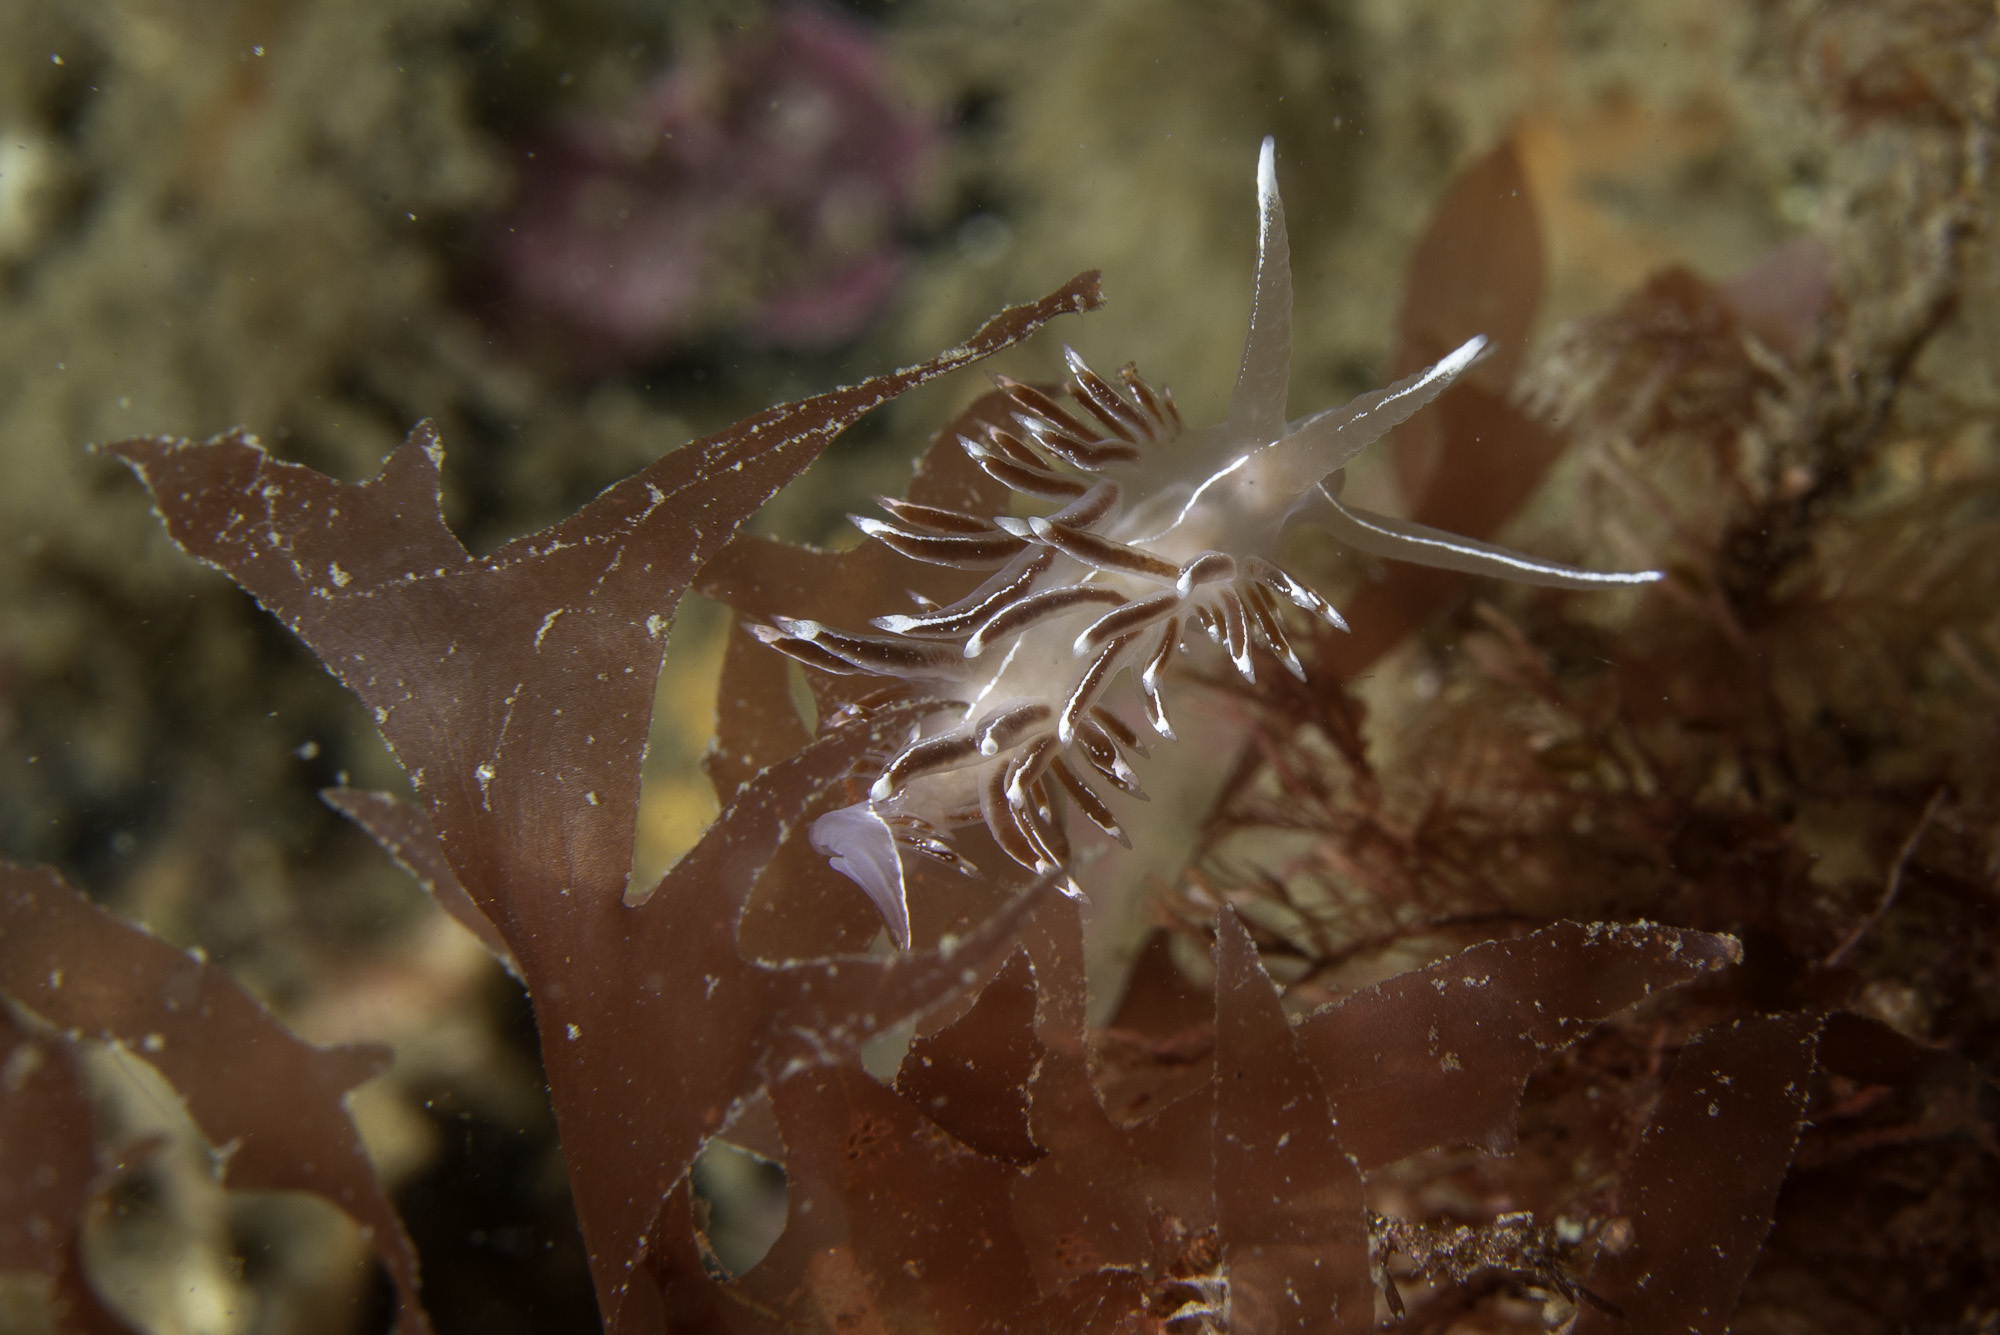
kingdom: Animalia
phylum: Mollusca
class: Gastropoda
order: Nudibranchia
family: Coryphellidae
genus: Coryphella
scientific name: Coryphella lineata
